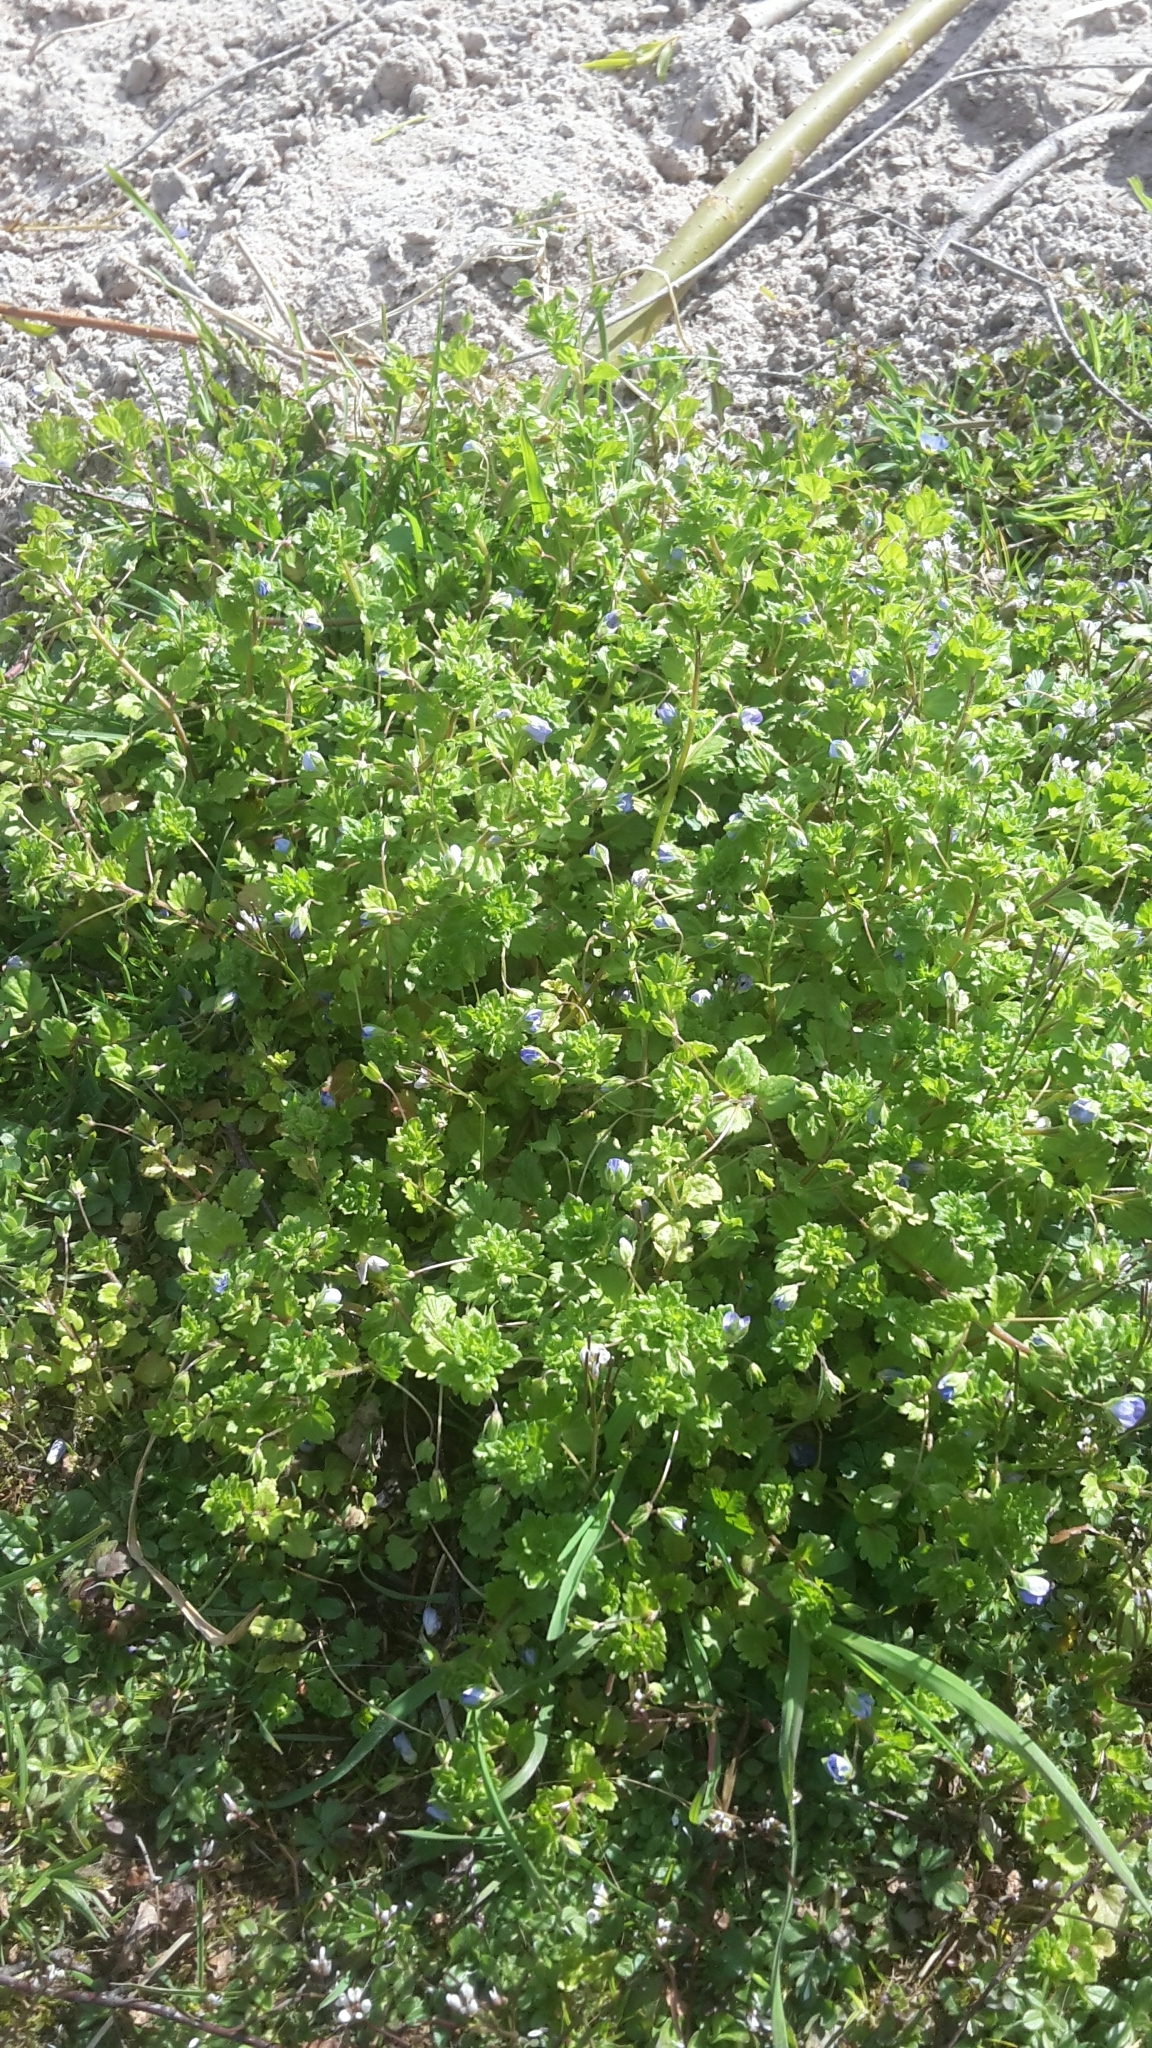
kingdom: Plantae
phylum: Tracheophyta
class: Magnoliopsida
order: Lamiales
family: Plantaginaceae
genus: Veronica
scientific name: Veronica persica
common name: Common field-speedwell
